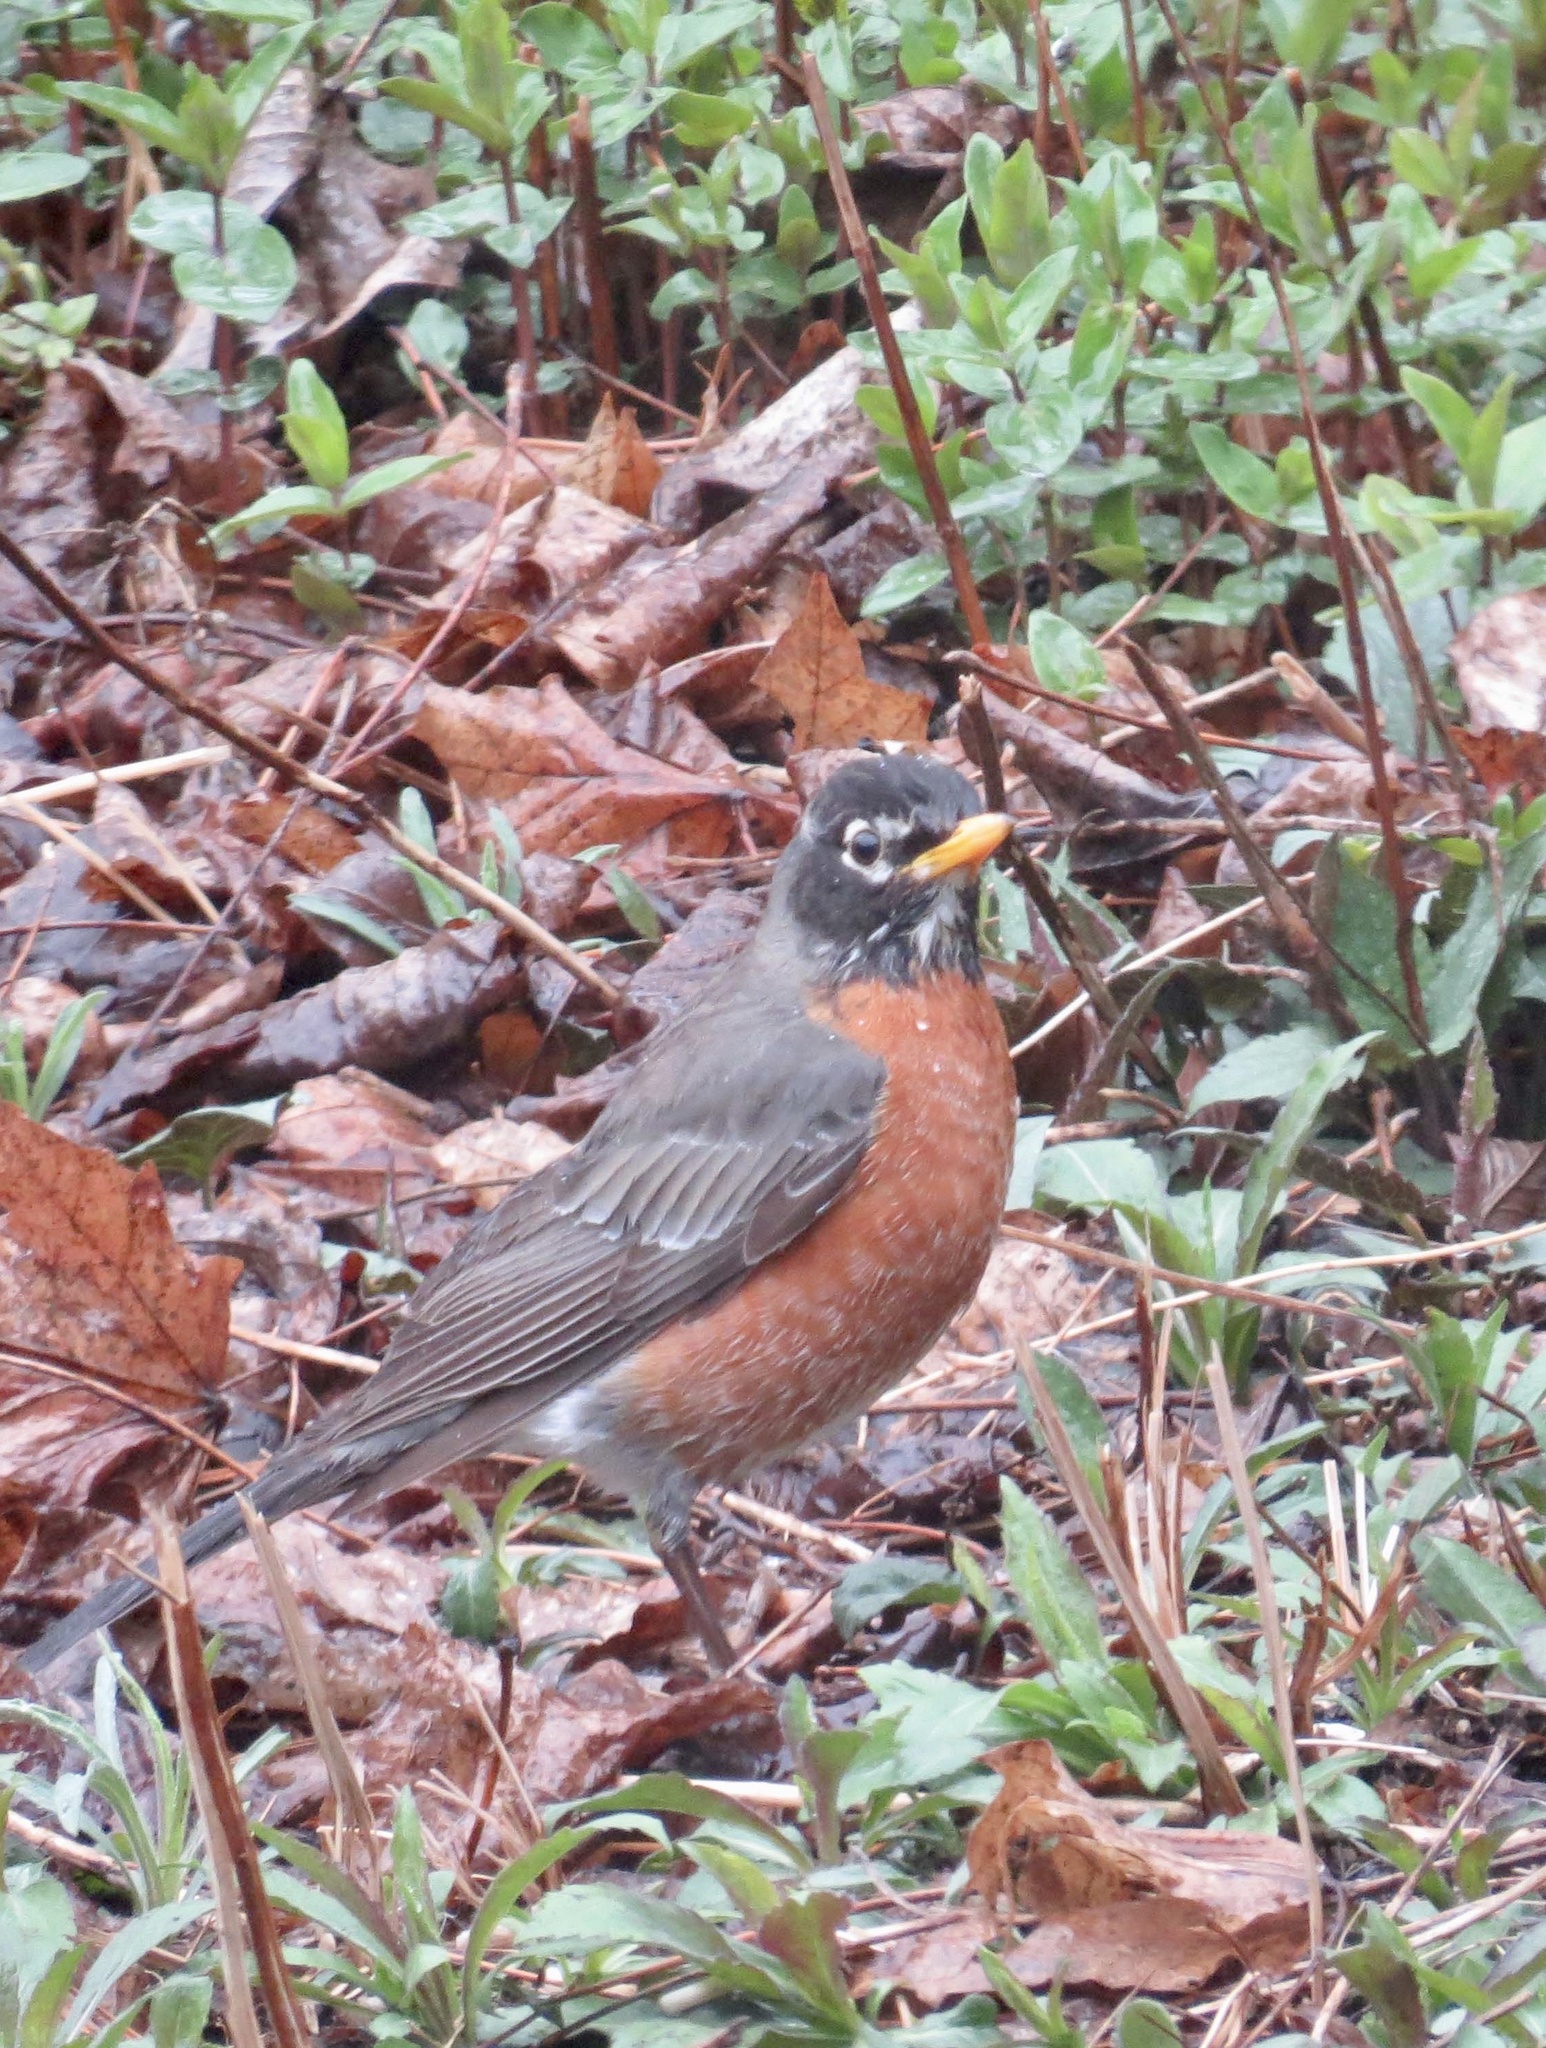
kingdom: Animalia
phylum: Chordata
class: Aves
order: Passeriformes
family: Turdidae
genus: Turdus
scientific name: Turdus migratorius
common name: American robin
